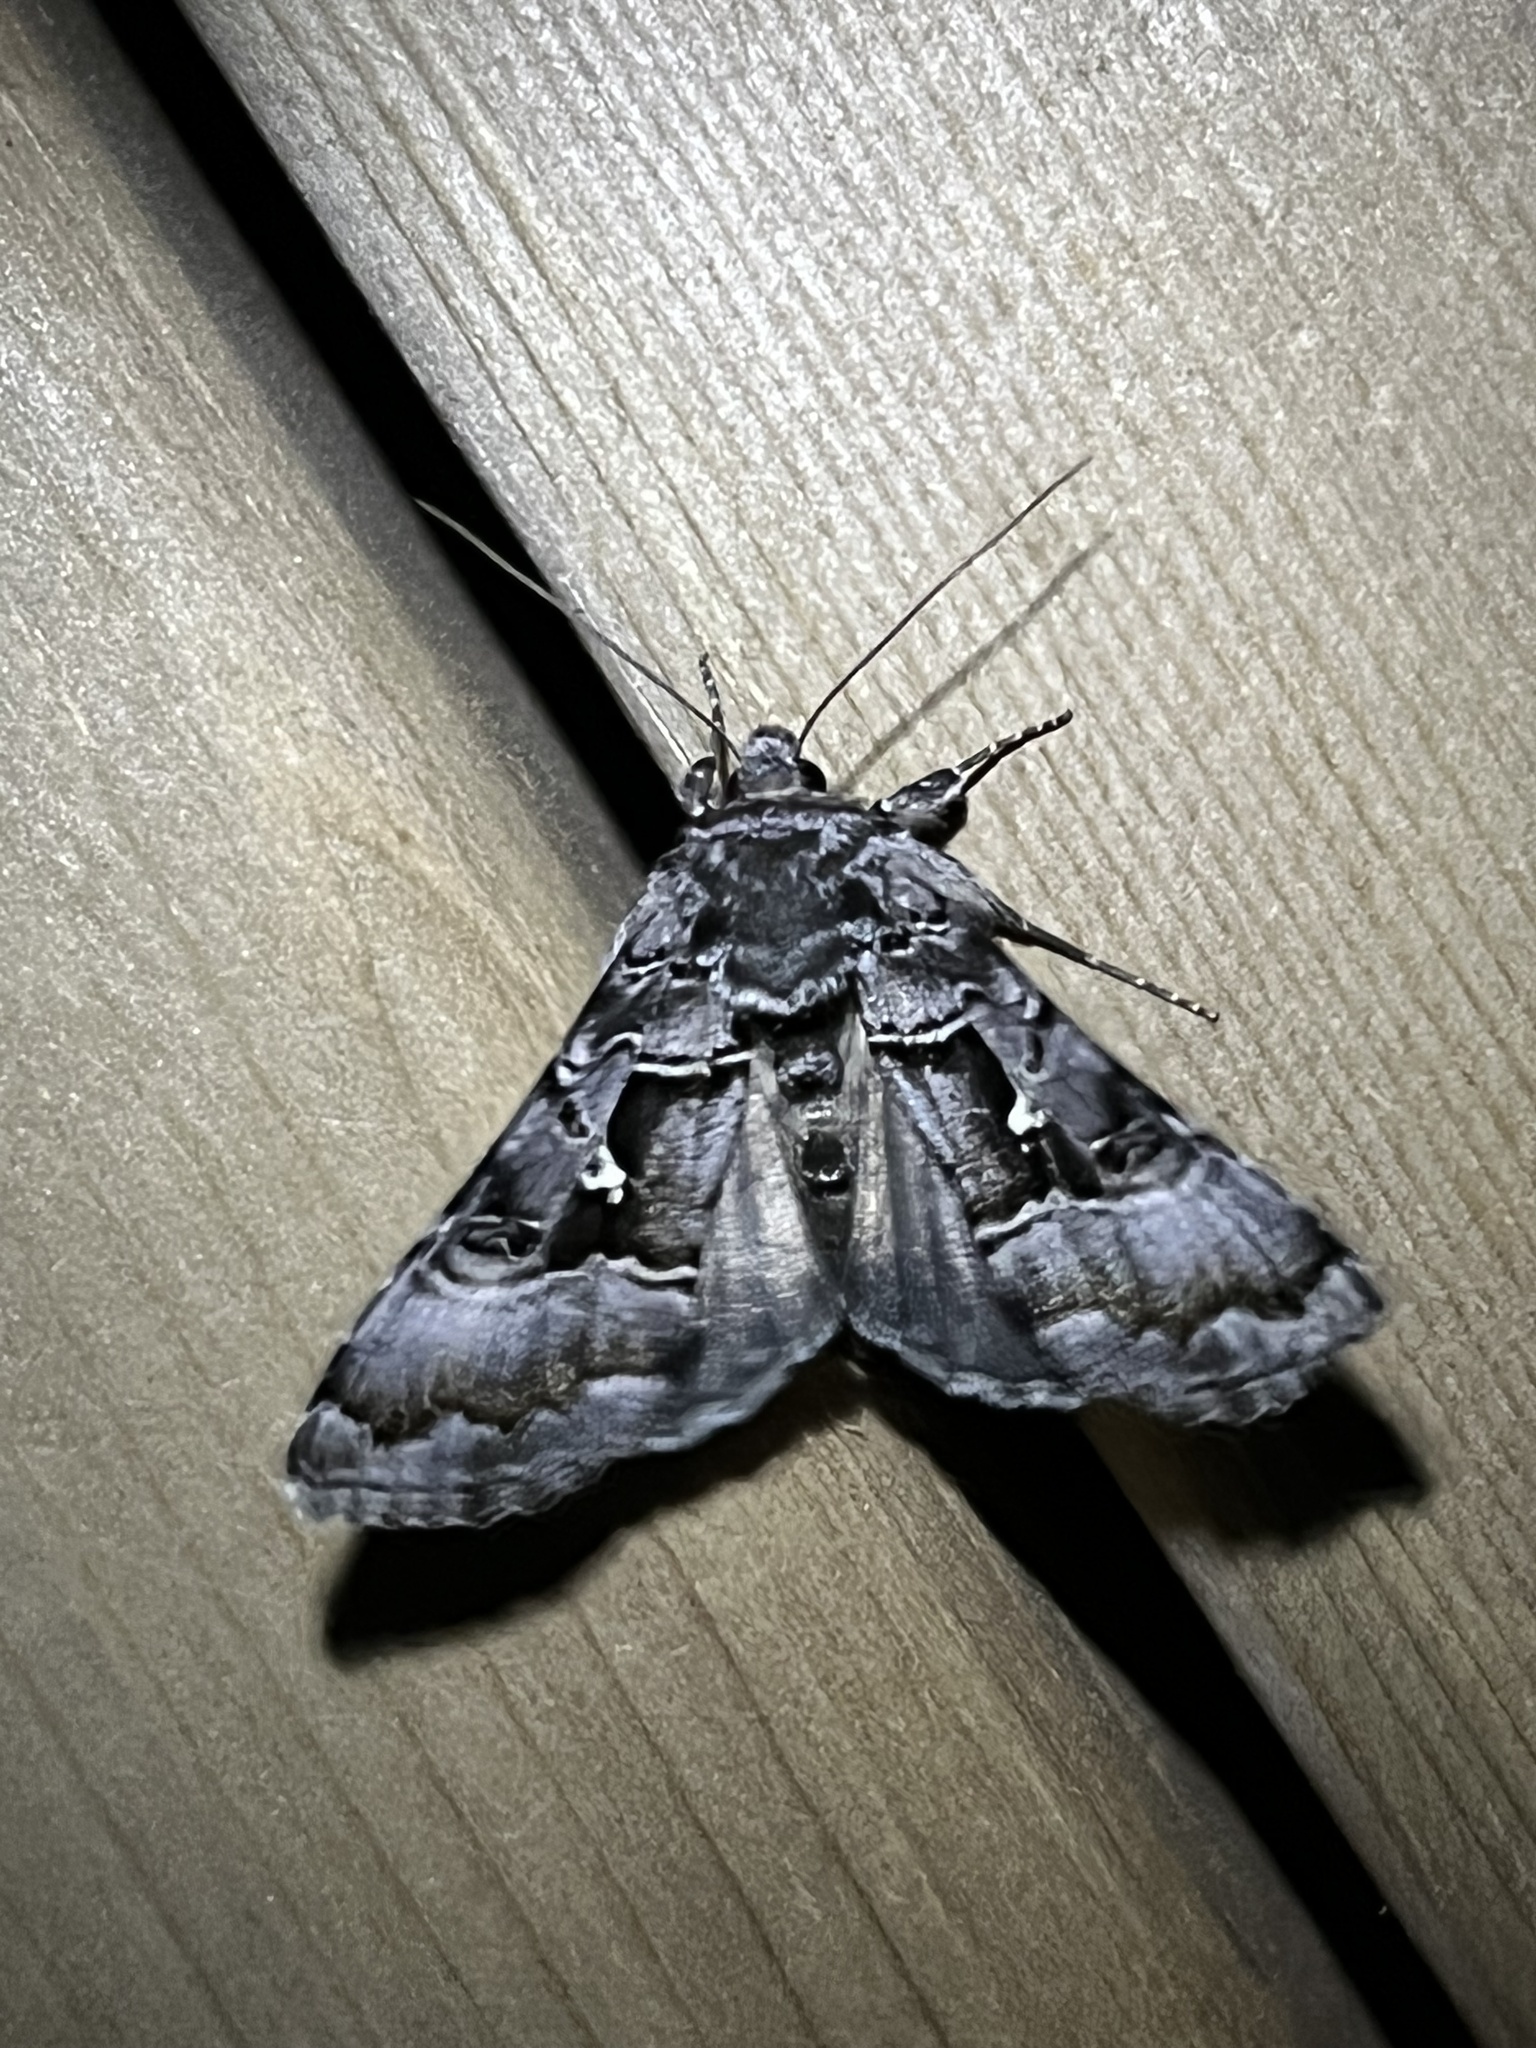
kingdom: Animalia
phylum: Arthropoda
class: Insecta
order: Lepidoptera
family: Noctuidae
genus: Autographa
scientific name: Autographa v-alba
